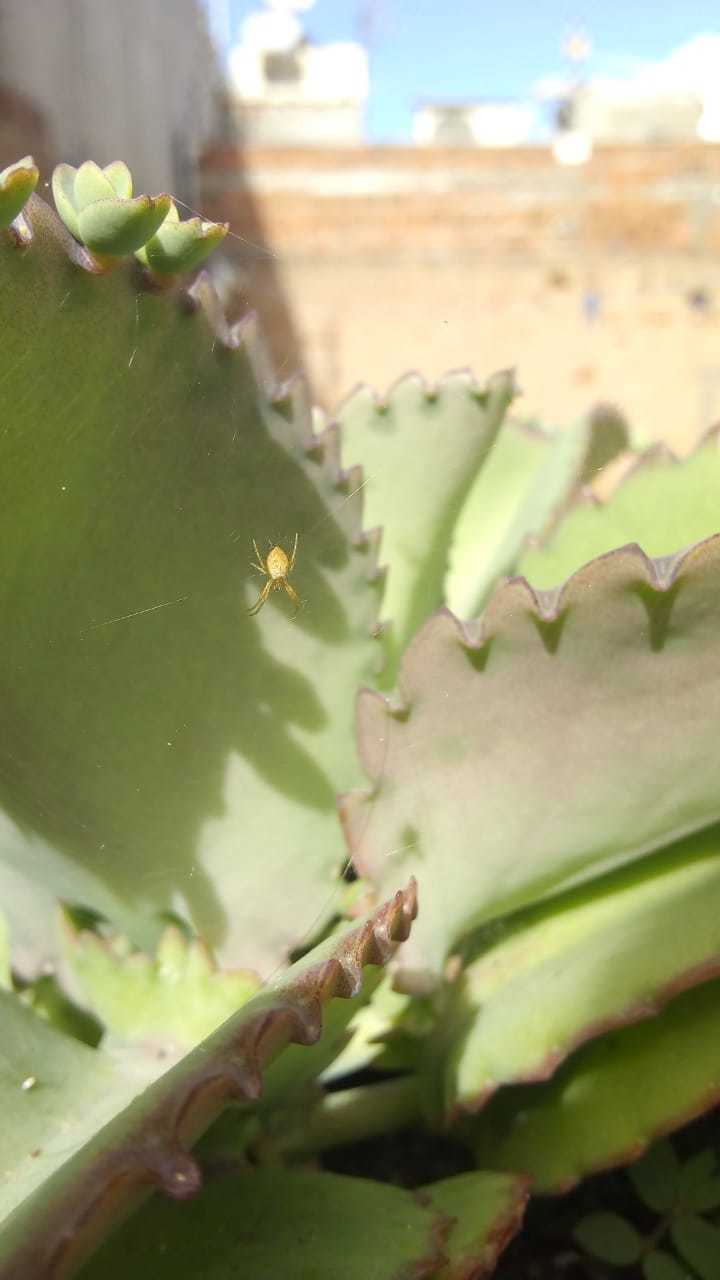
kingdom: Animalia
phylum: Arthropoda
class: Arachnida
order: Araneae
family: Araneidae
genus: Argiope
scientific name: Argiope argentata
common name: Orb weavers
